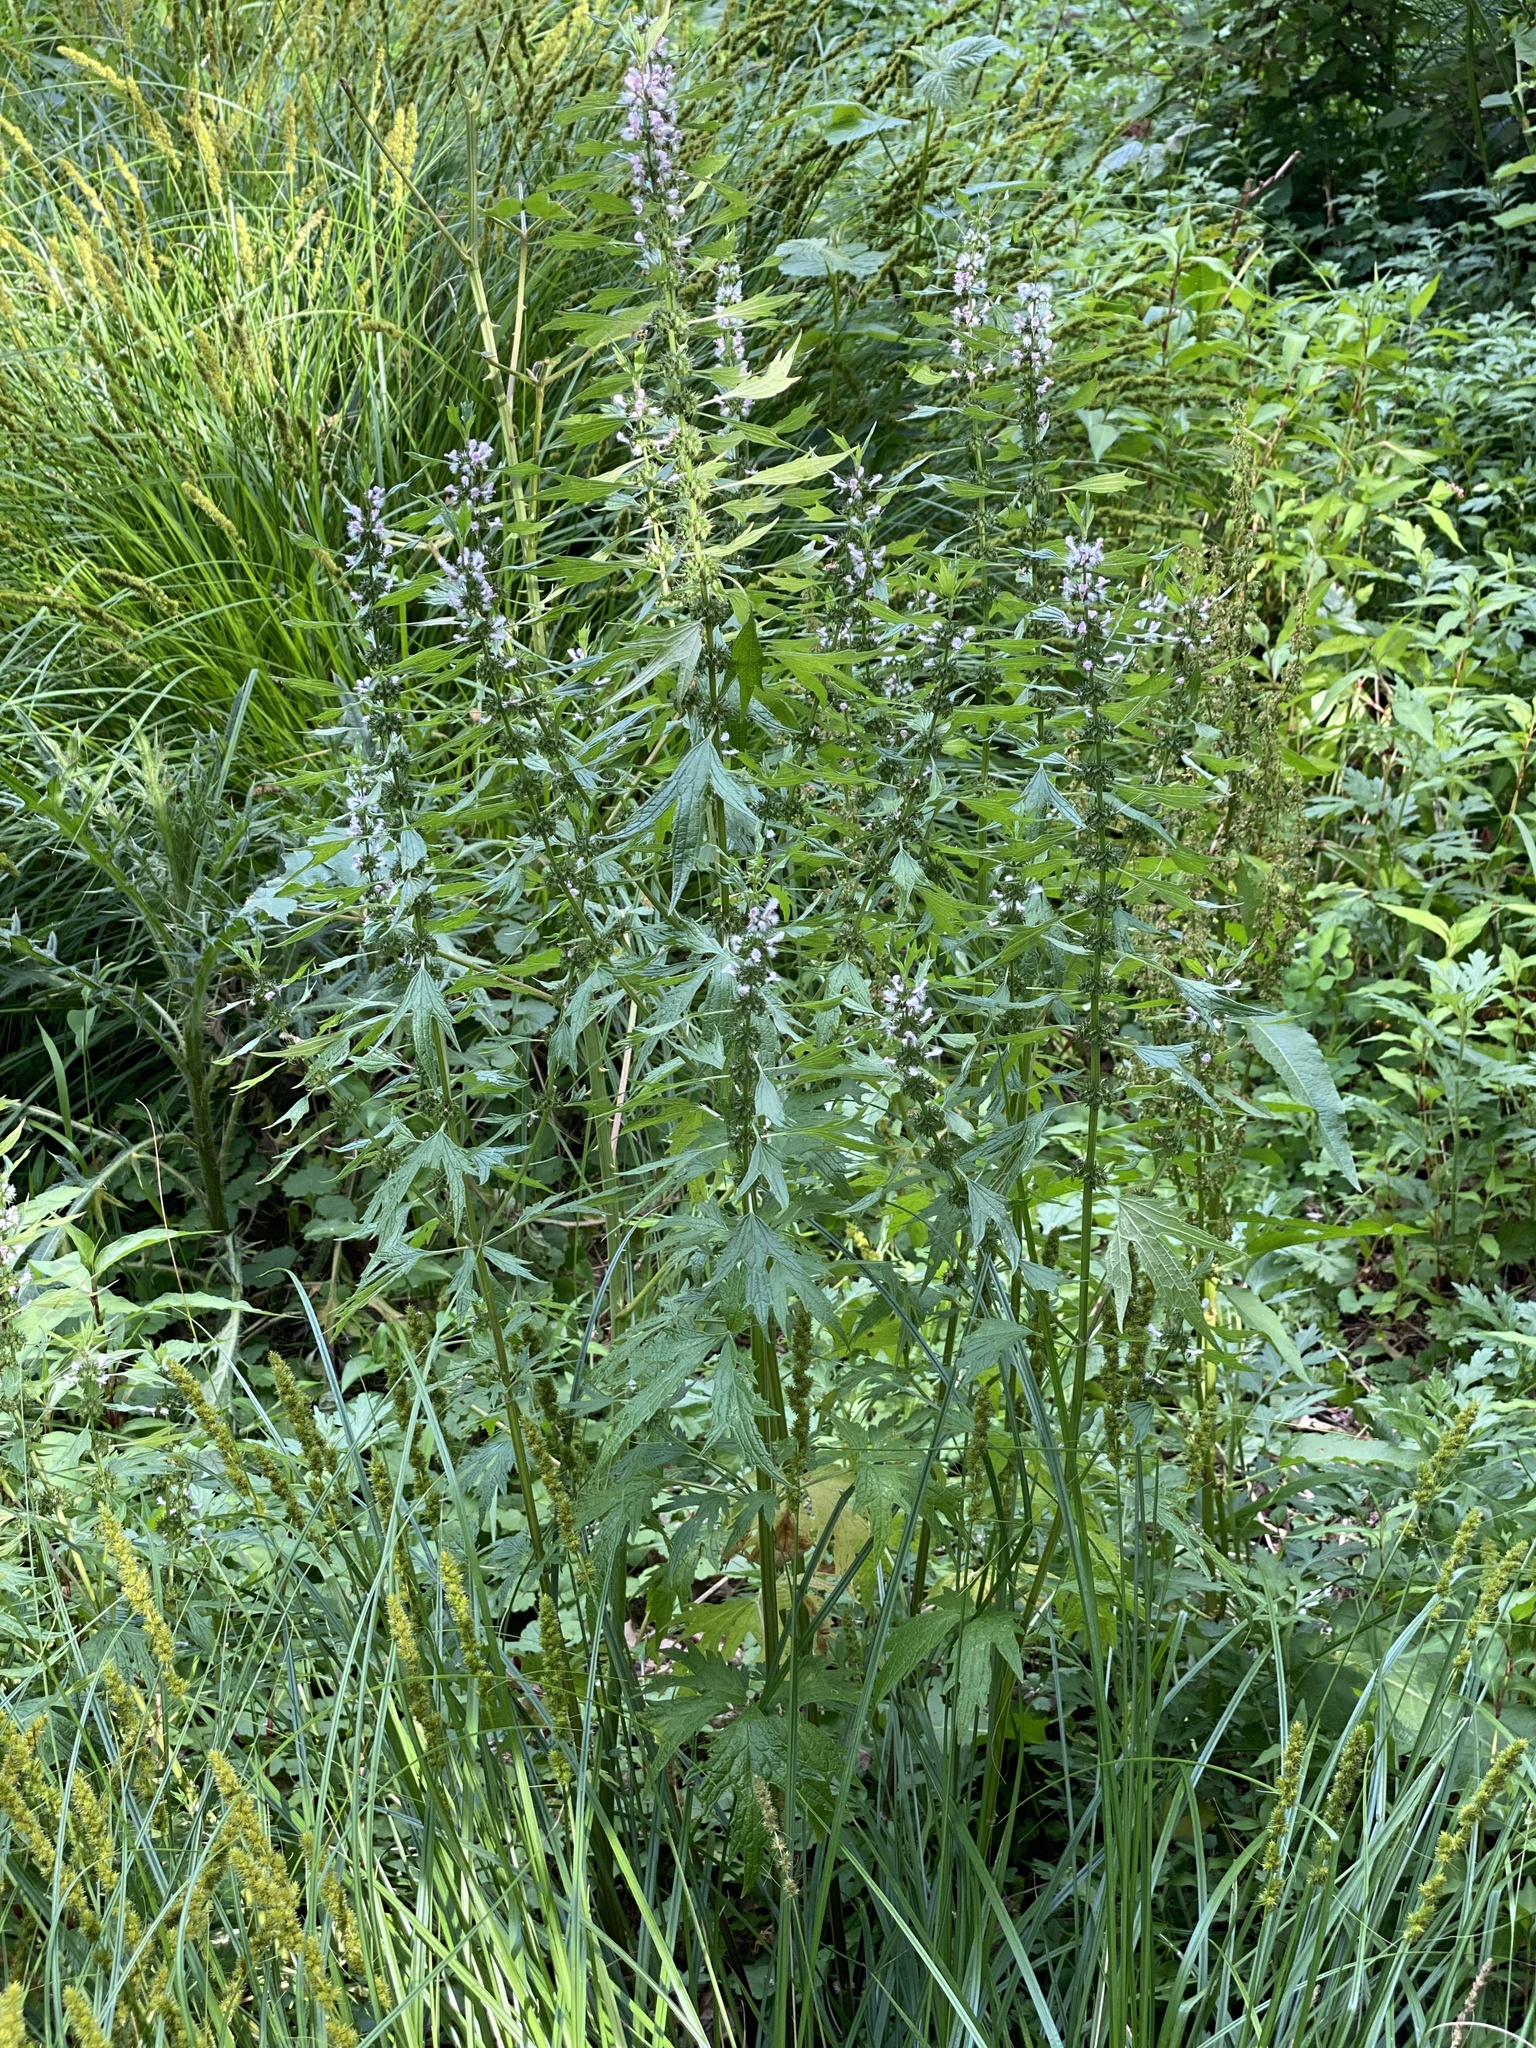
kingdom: Plantae
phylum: Tracheophyta
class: Magnoliopsida
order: Lamiales
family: Lamiaceae
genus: Leonurus
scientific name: Leonurus cardiaca
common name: Motherwort
